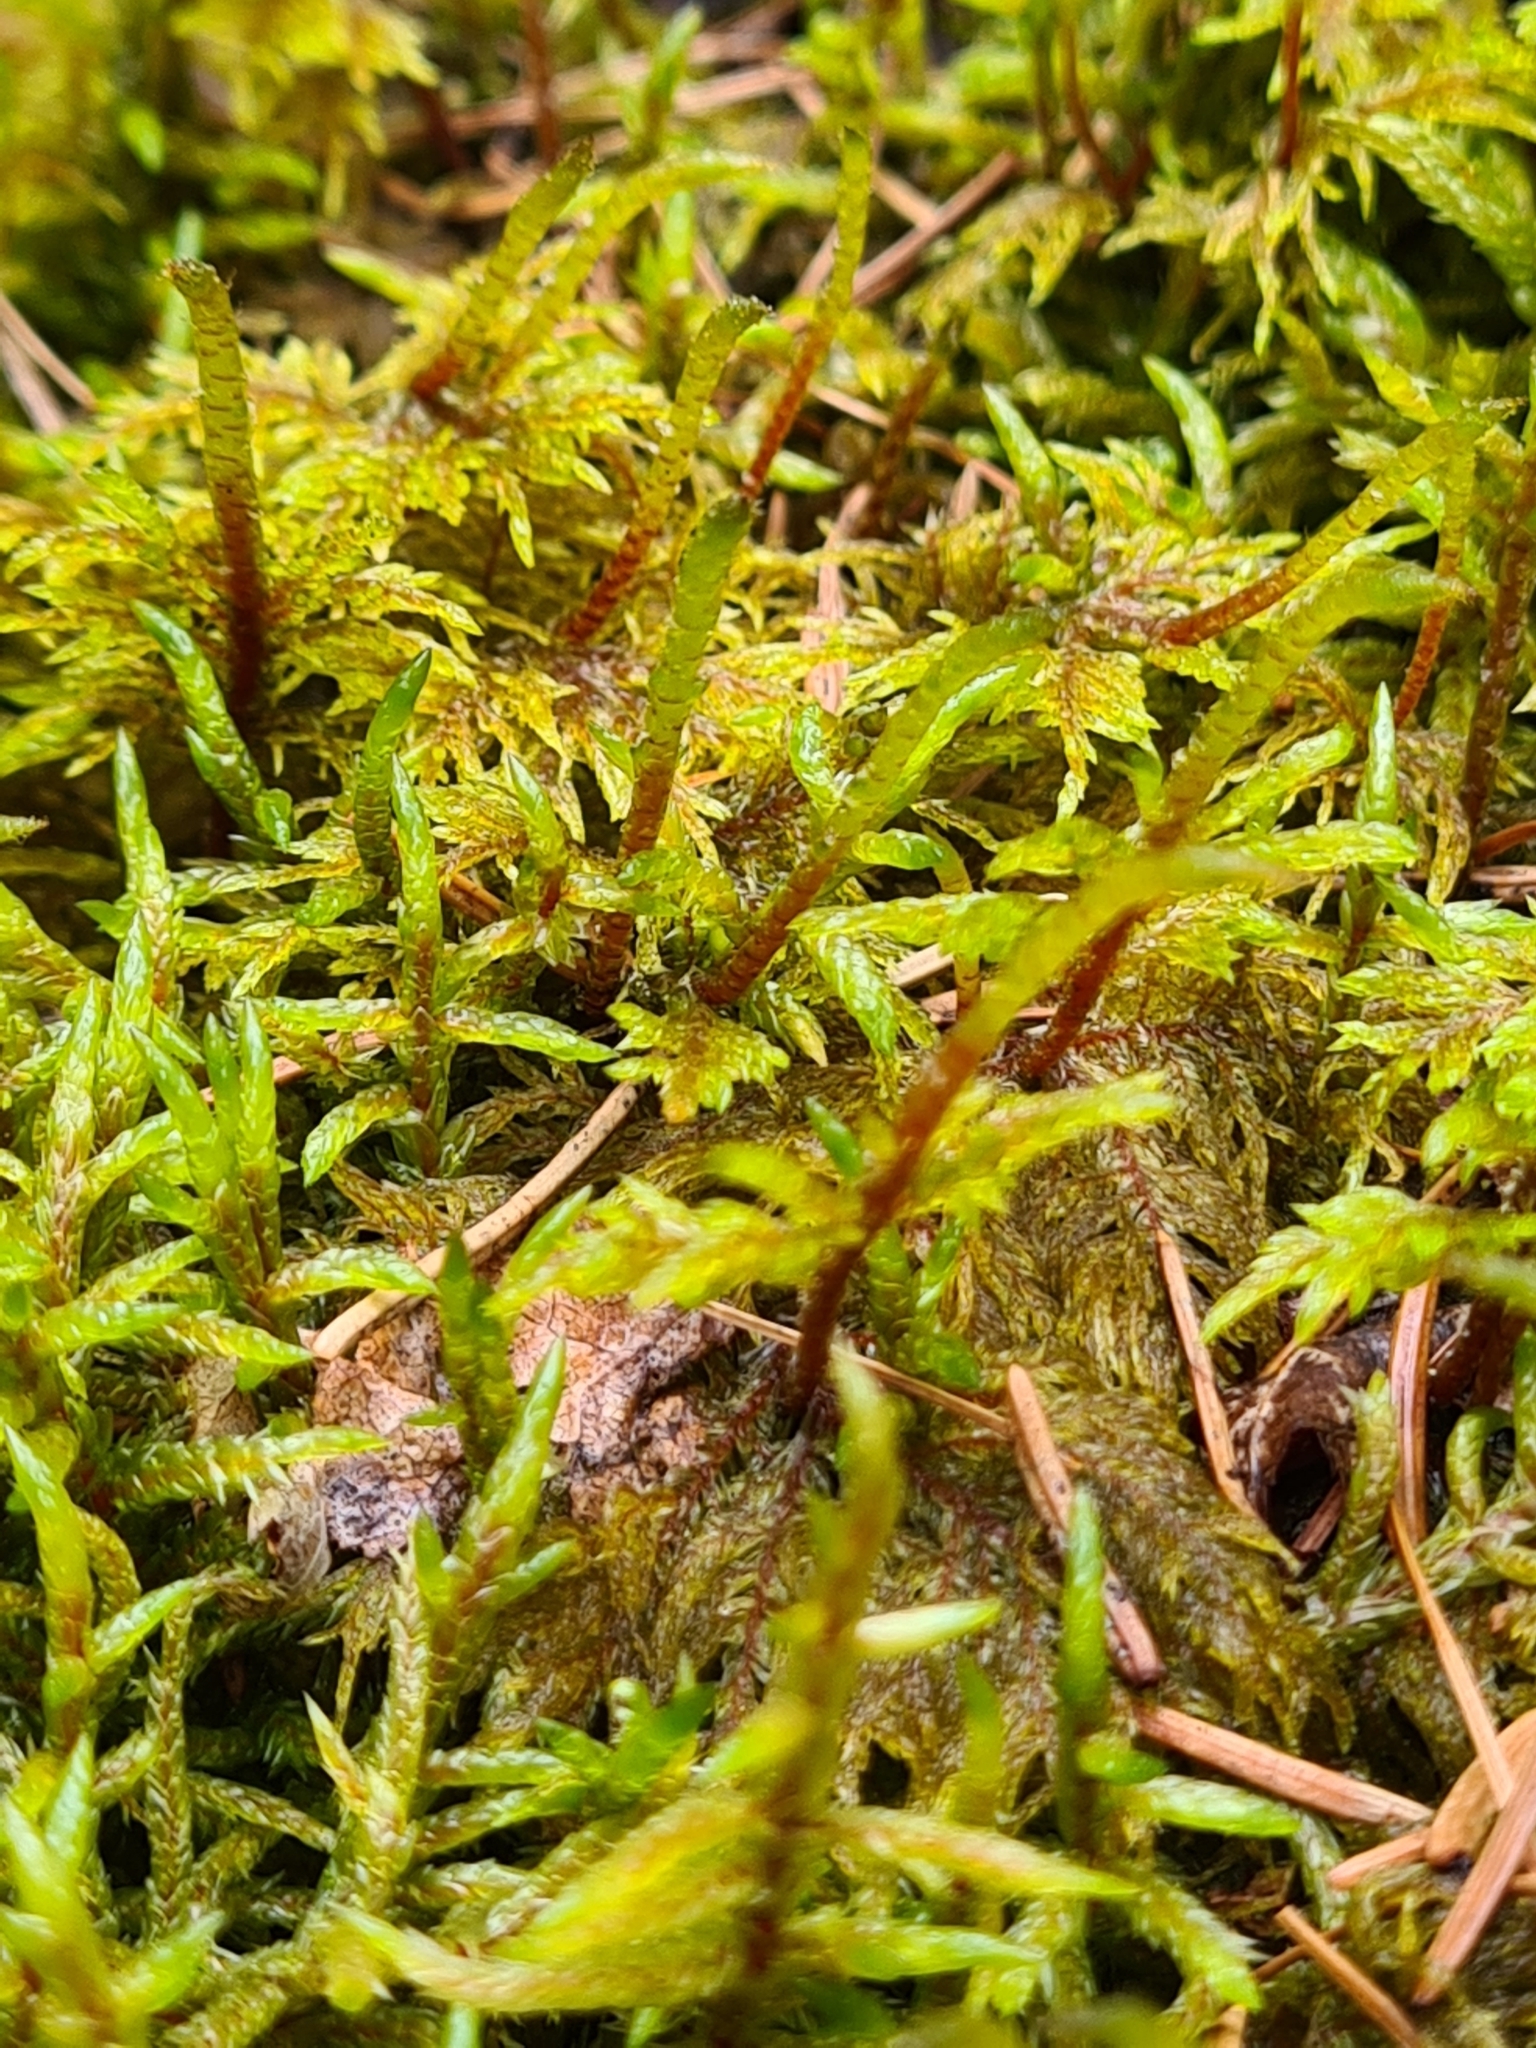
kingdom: Plantae
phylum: Bryophyta
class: Bryopsida
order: Hypnales
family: Hylocomiaceae
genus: Pleurozium
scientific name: Pleurozium schreberi
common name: Red-stemmed feather moss
